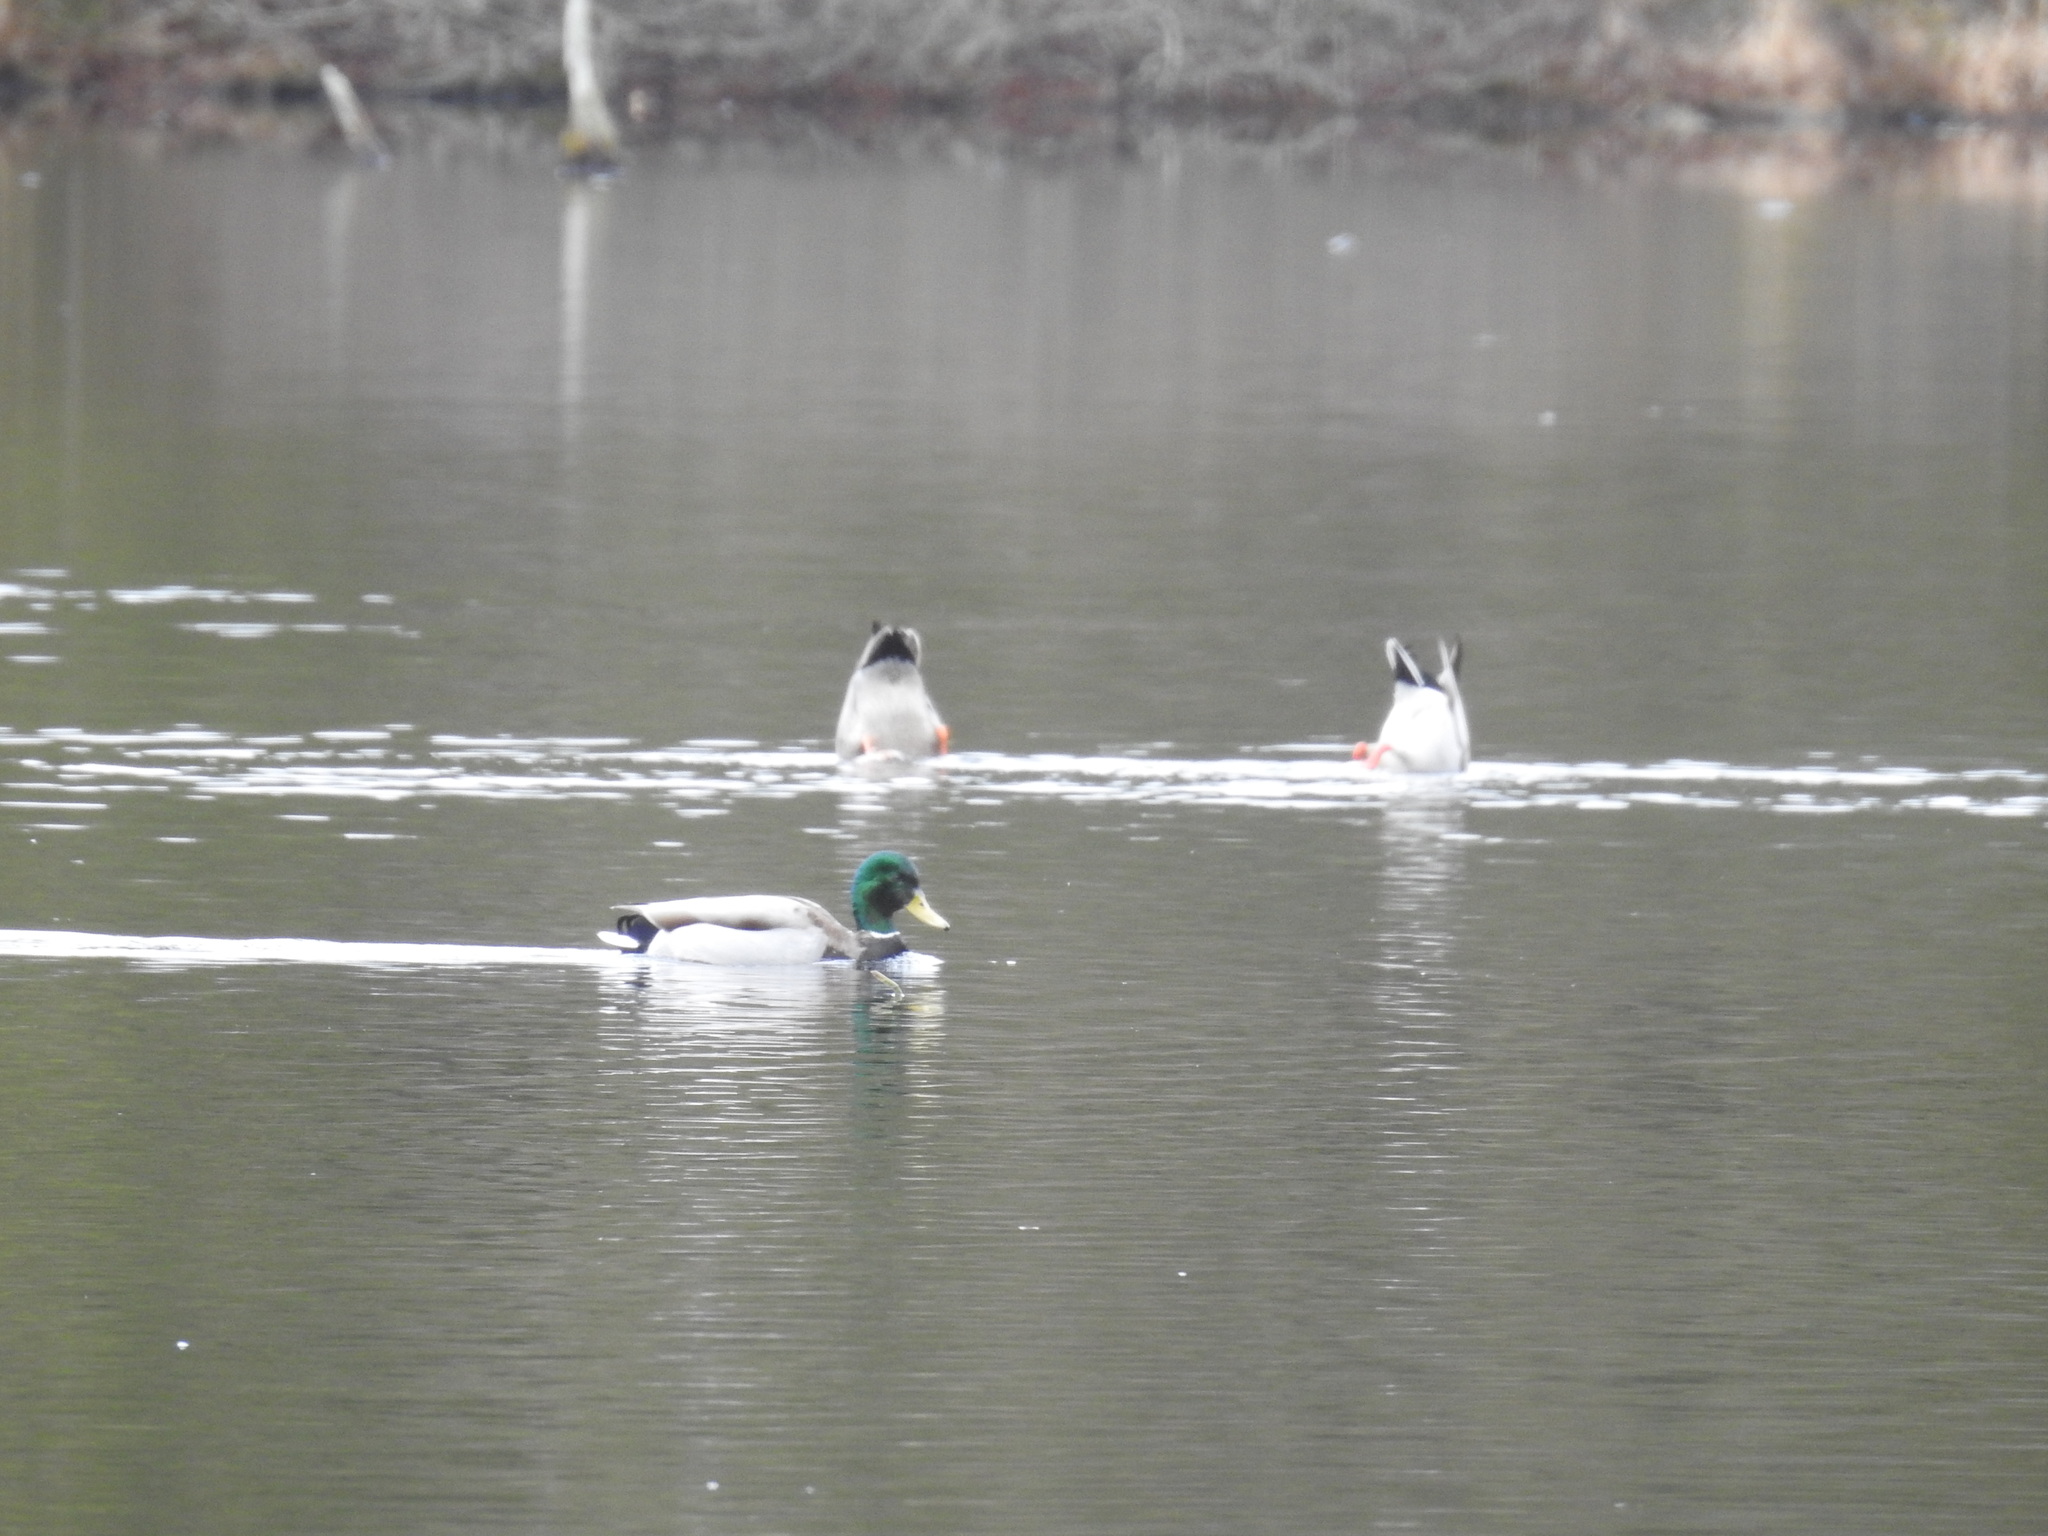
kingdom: Animalia
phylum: Chordata
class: Aves
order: Anseriformes
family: Anatidae
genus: Anas
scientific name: Anas platyrhynchos
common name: Mallard
